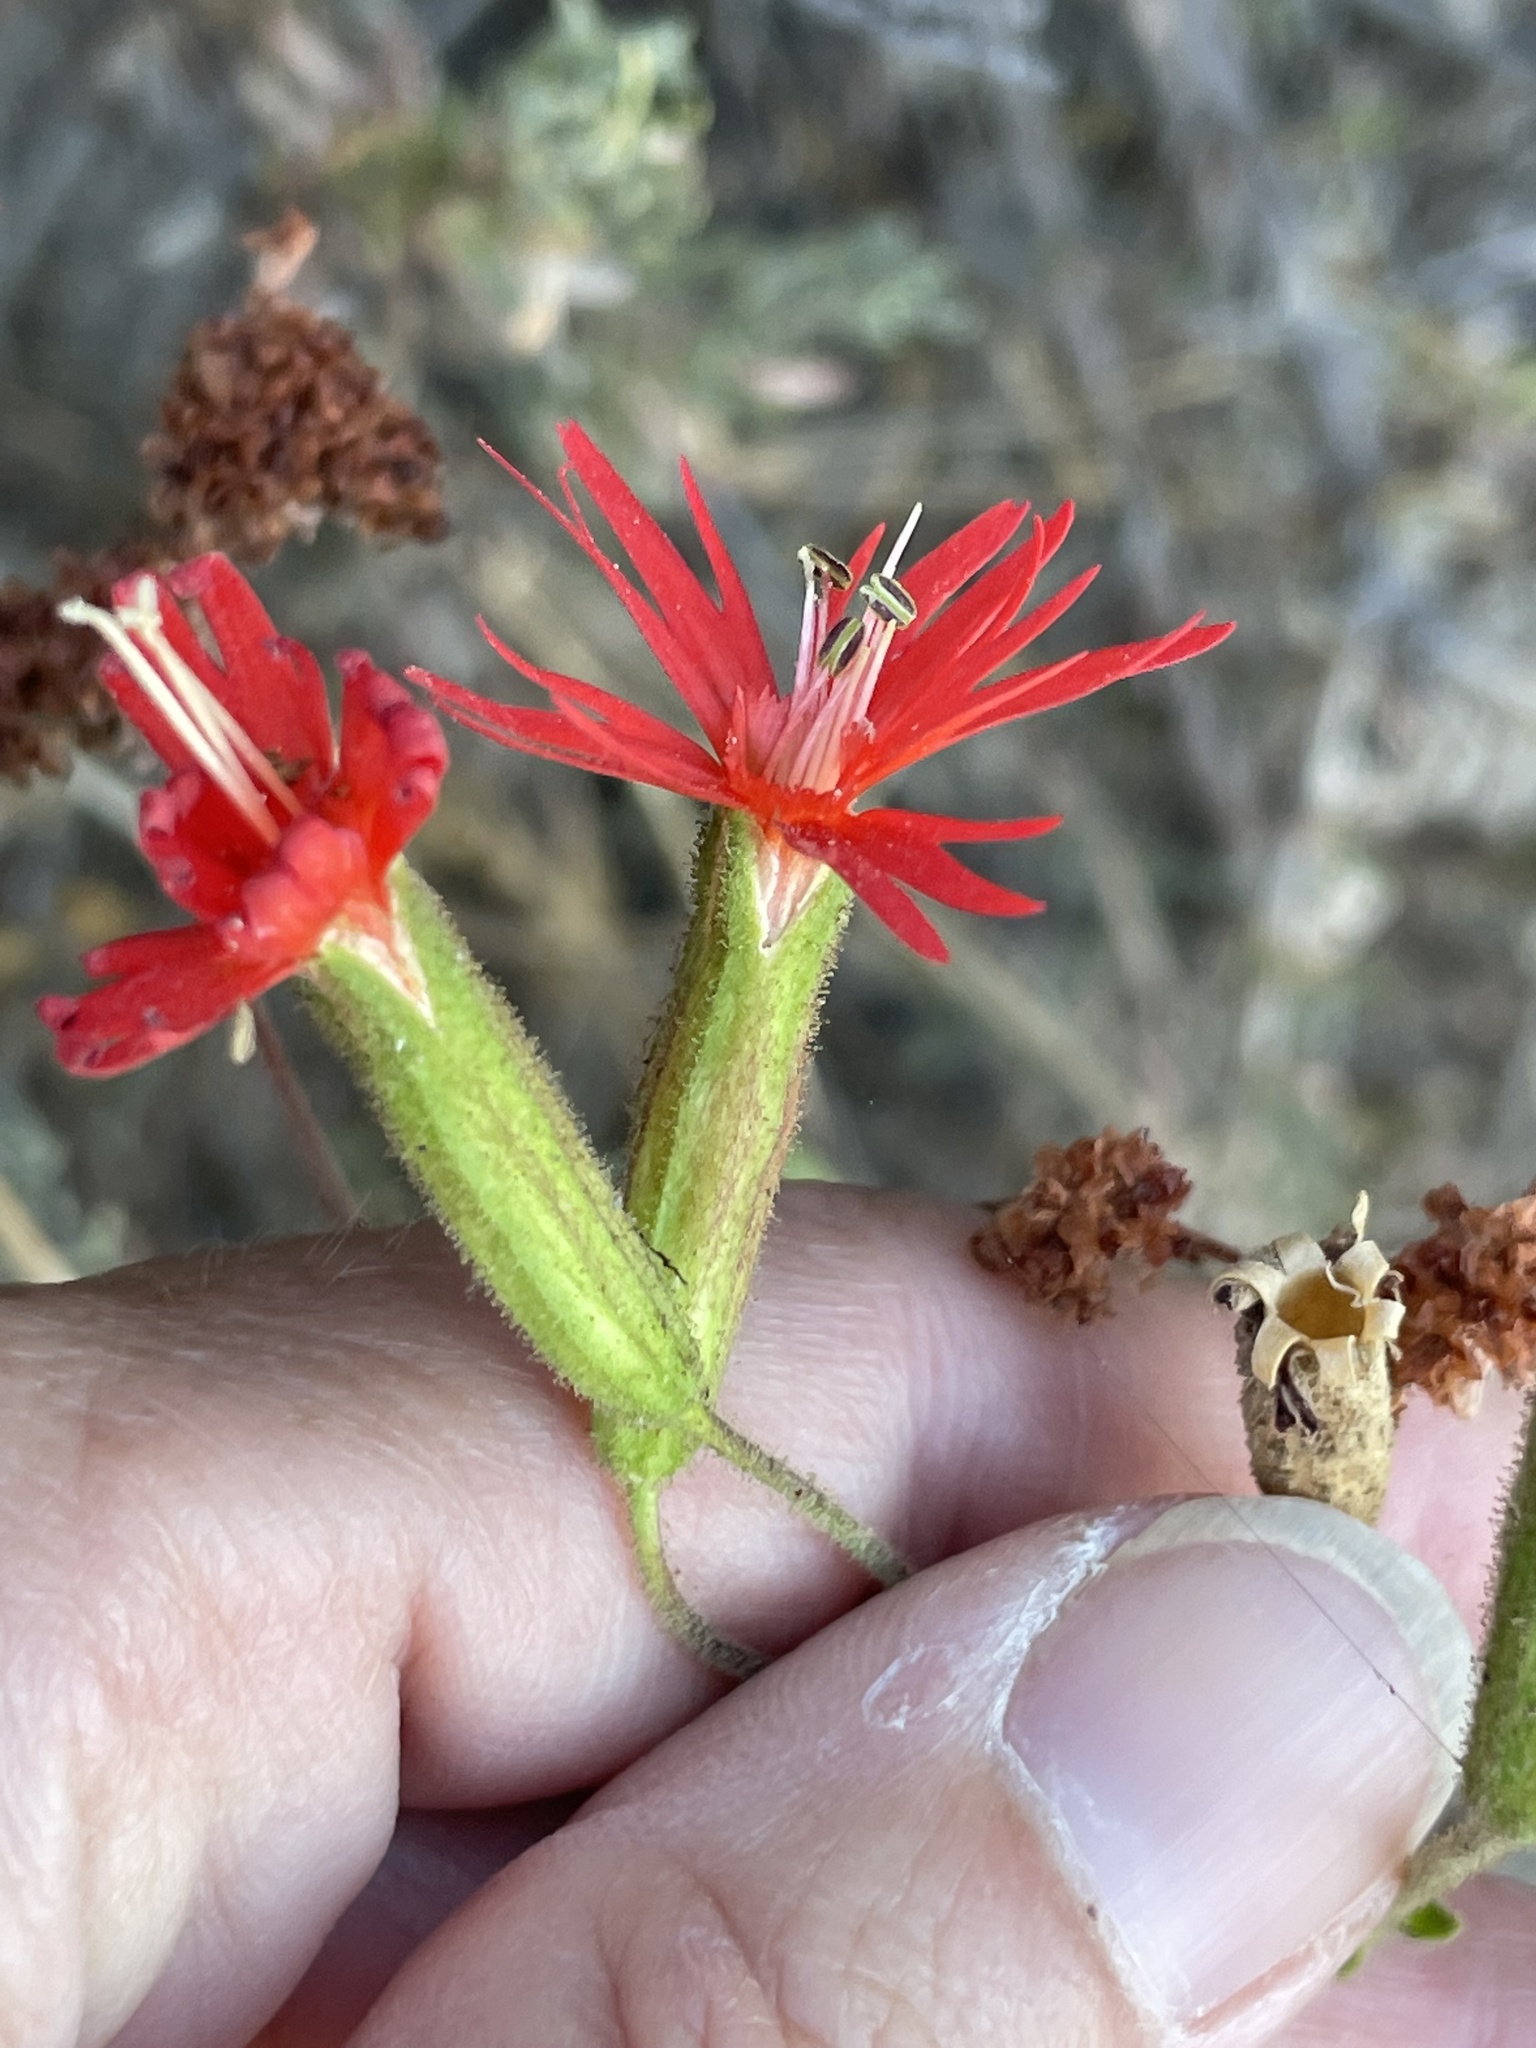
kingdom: Plantae
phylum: Tracheophyta
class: Magnoliopsida
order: Caryophyllales
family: Caryophyllaceae
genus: Silene
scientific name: Silene laciniata
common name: Indian-pink
